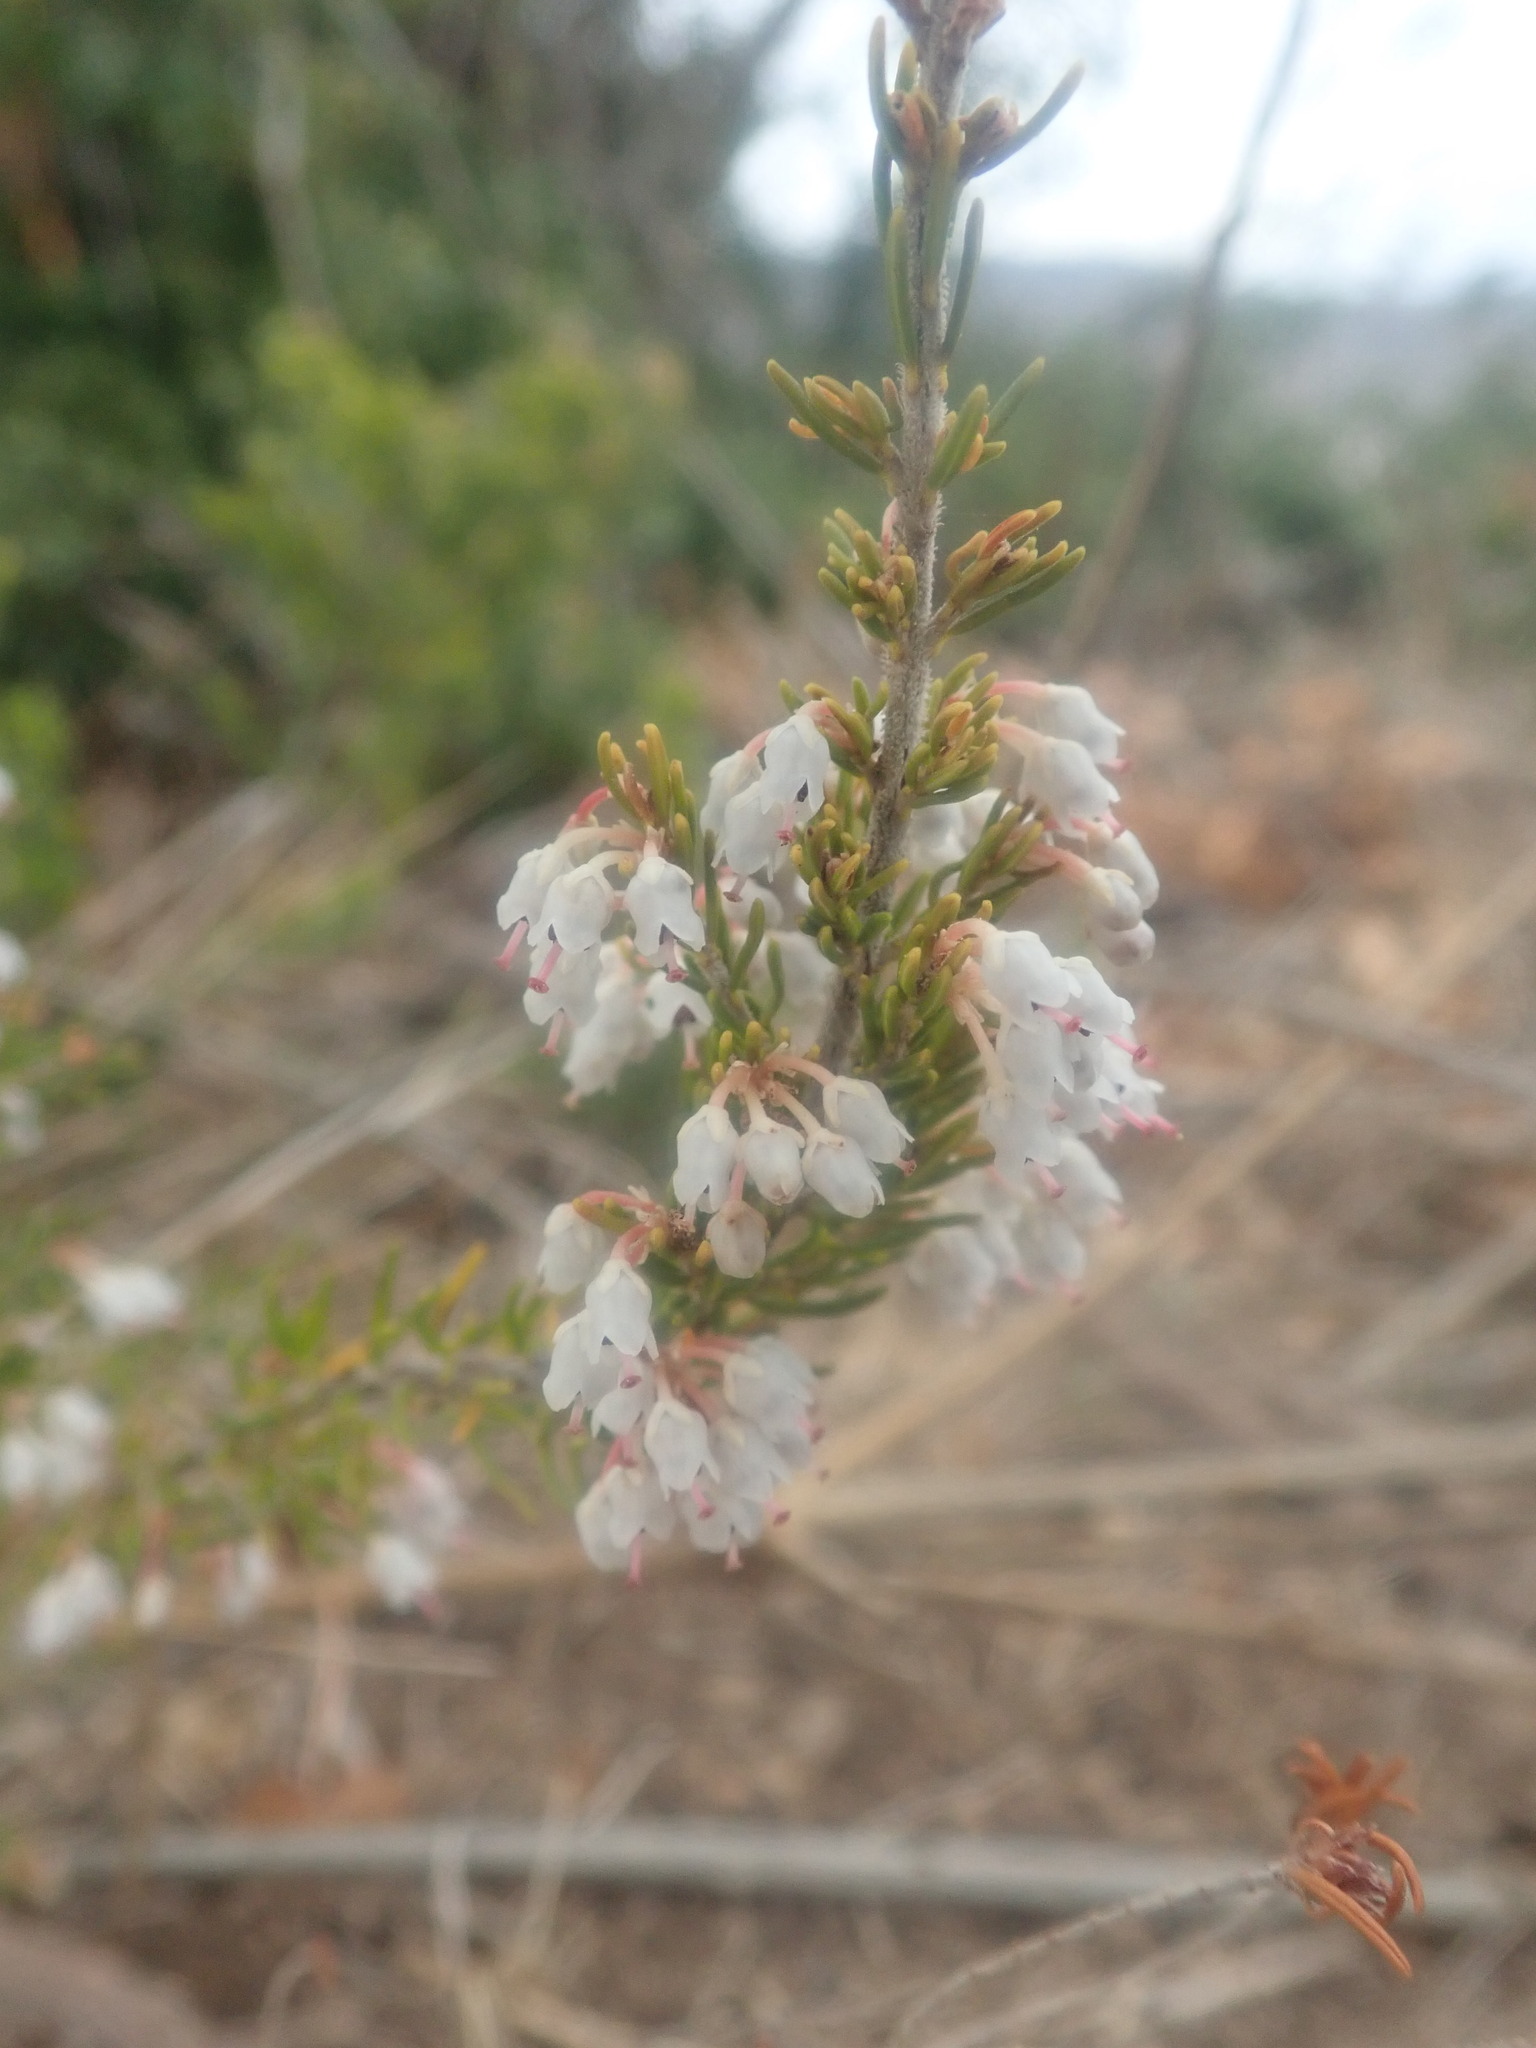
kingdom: Plantae
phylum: Tracheophyta
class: Magnoliopsida
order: Ericales
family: Ericaceae
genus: Erica
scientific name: Erica arborea
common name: Tree heath
